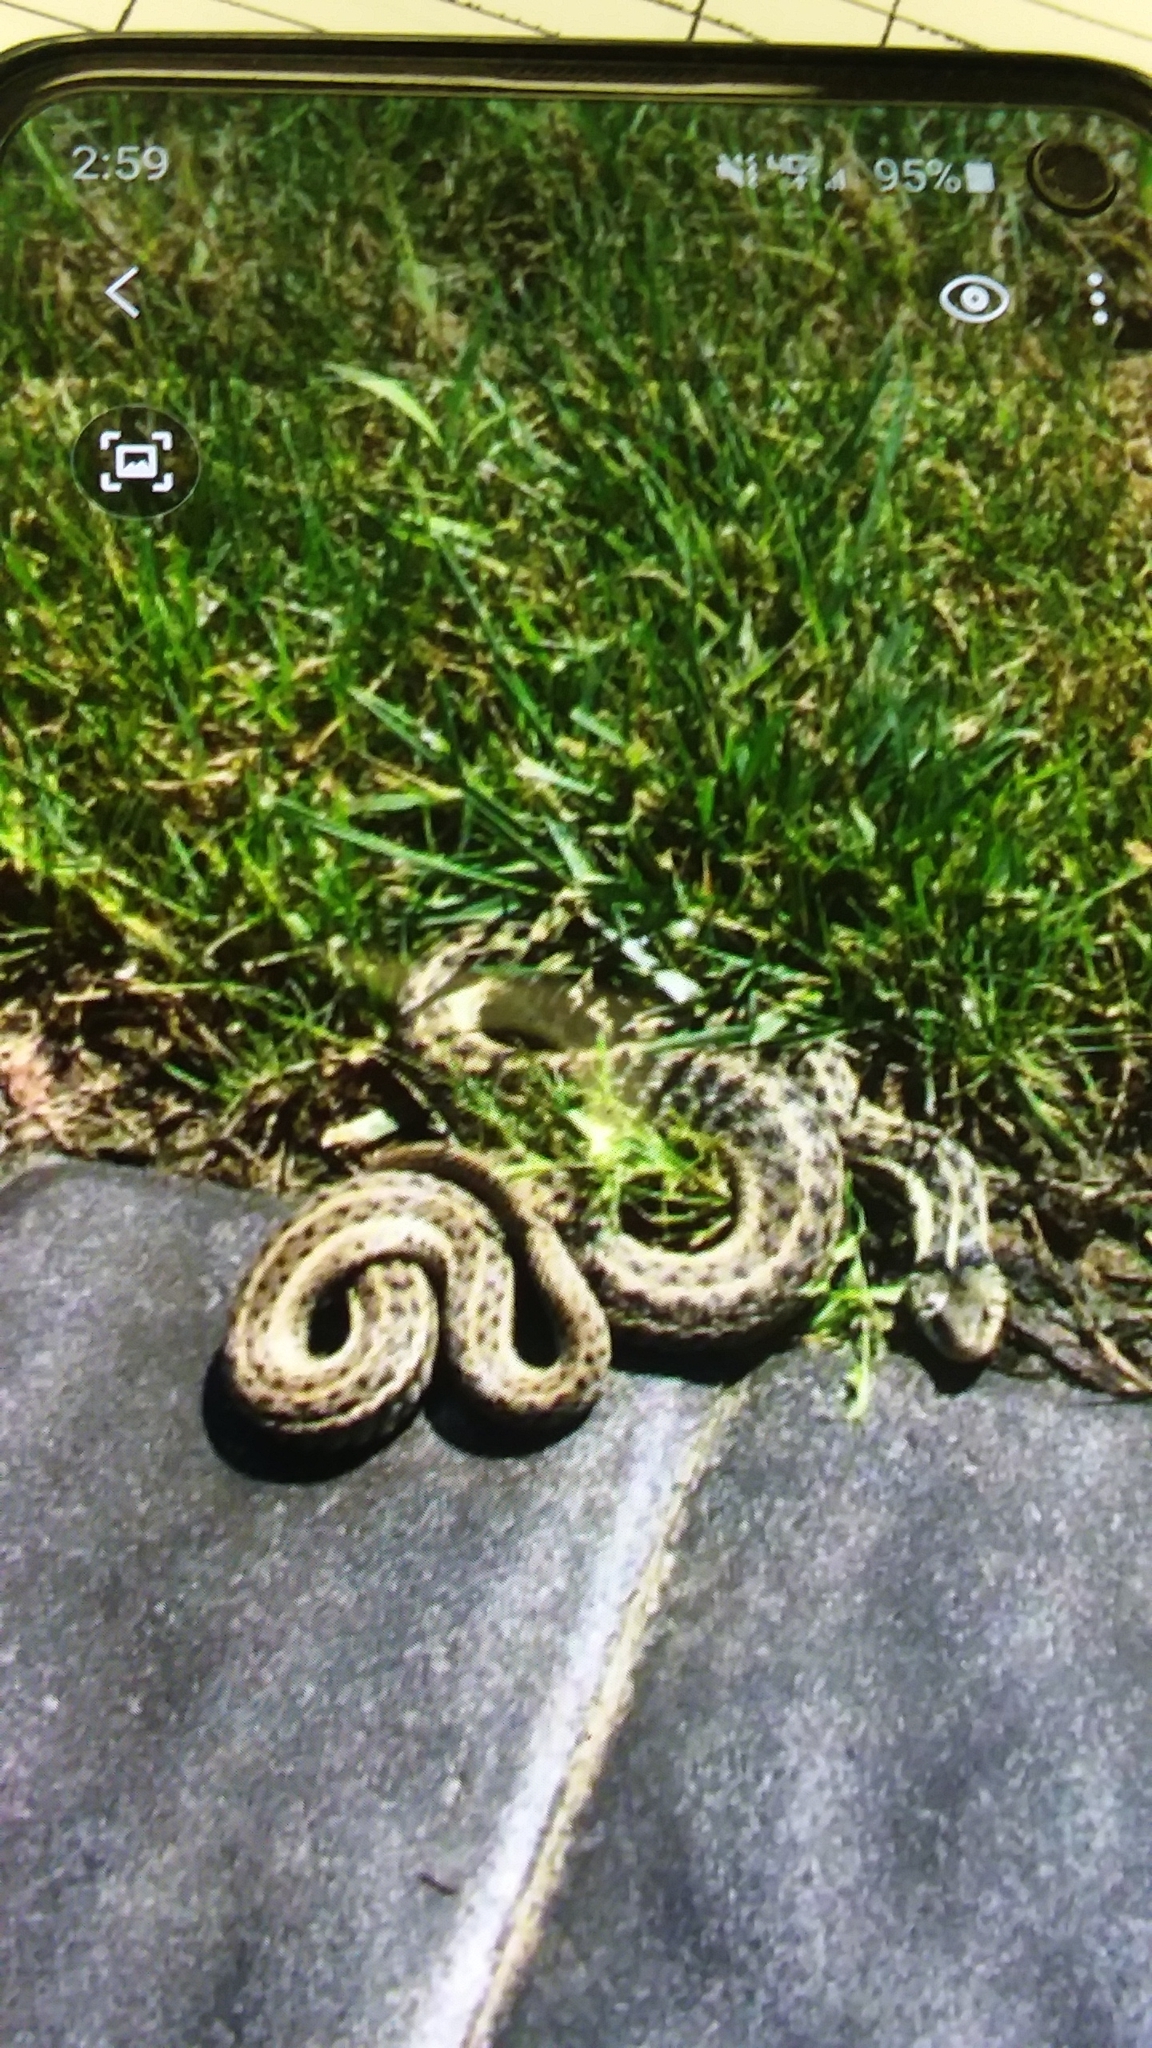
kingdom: Animalia
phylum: Chordata
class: Squamata
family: Colubridae
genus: Thamnophis
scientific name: Thamnophis sirtalis
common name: Common garter snake
